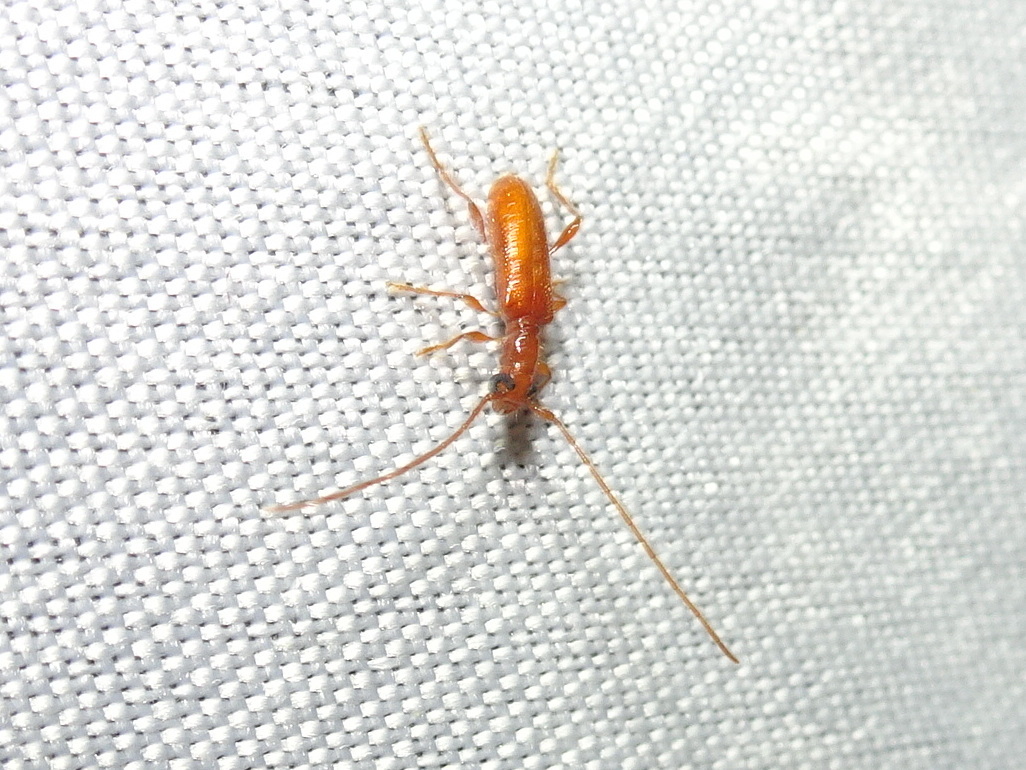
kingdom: Animalia
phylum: Arthropoda
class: Insecta
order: Coleoptera
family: Cerambycidae
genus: Obrium
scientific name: Obrium rufulum
